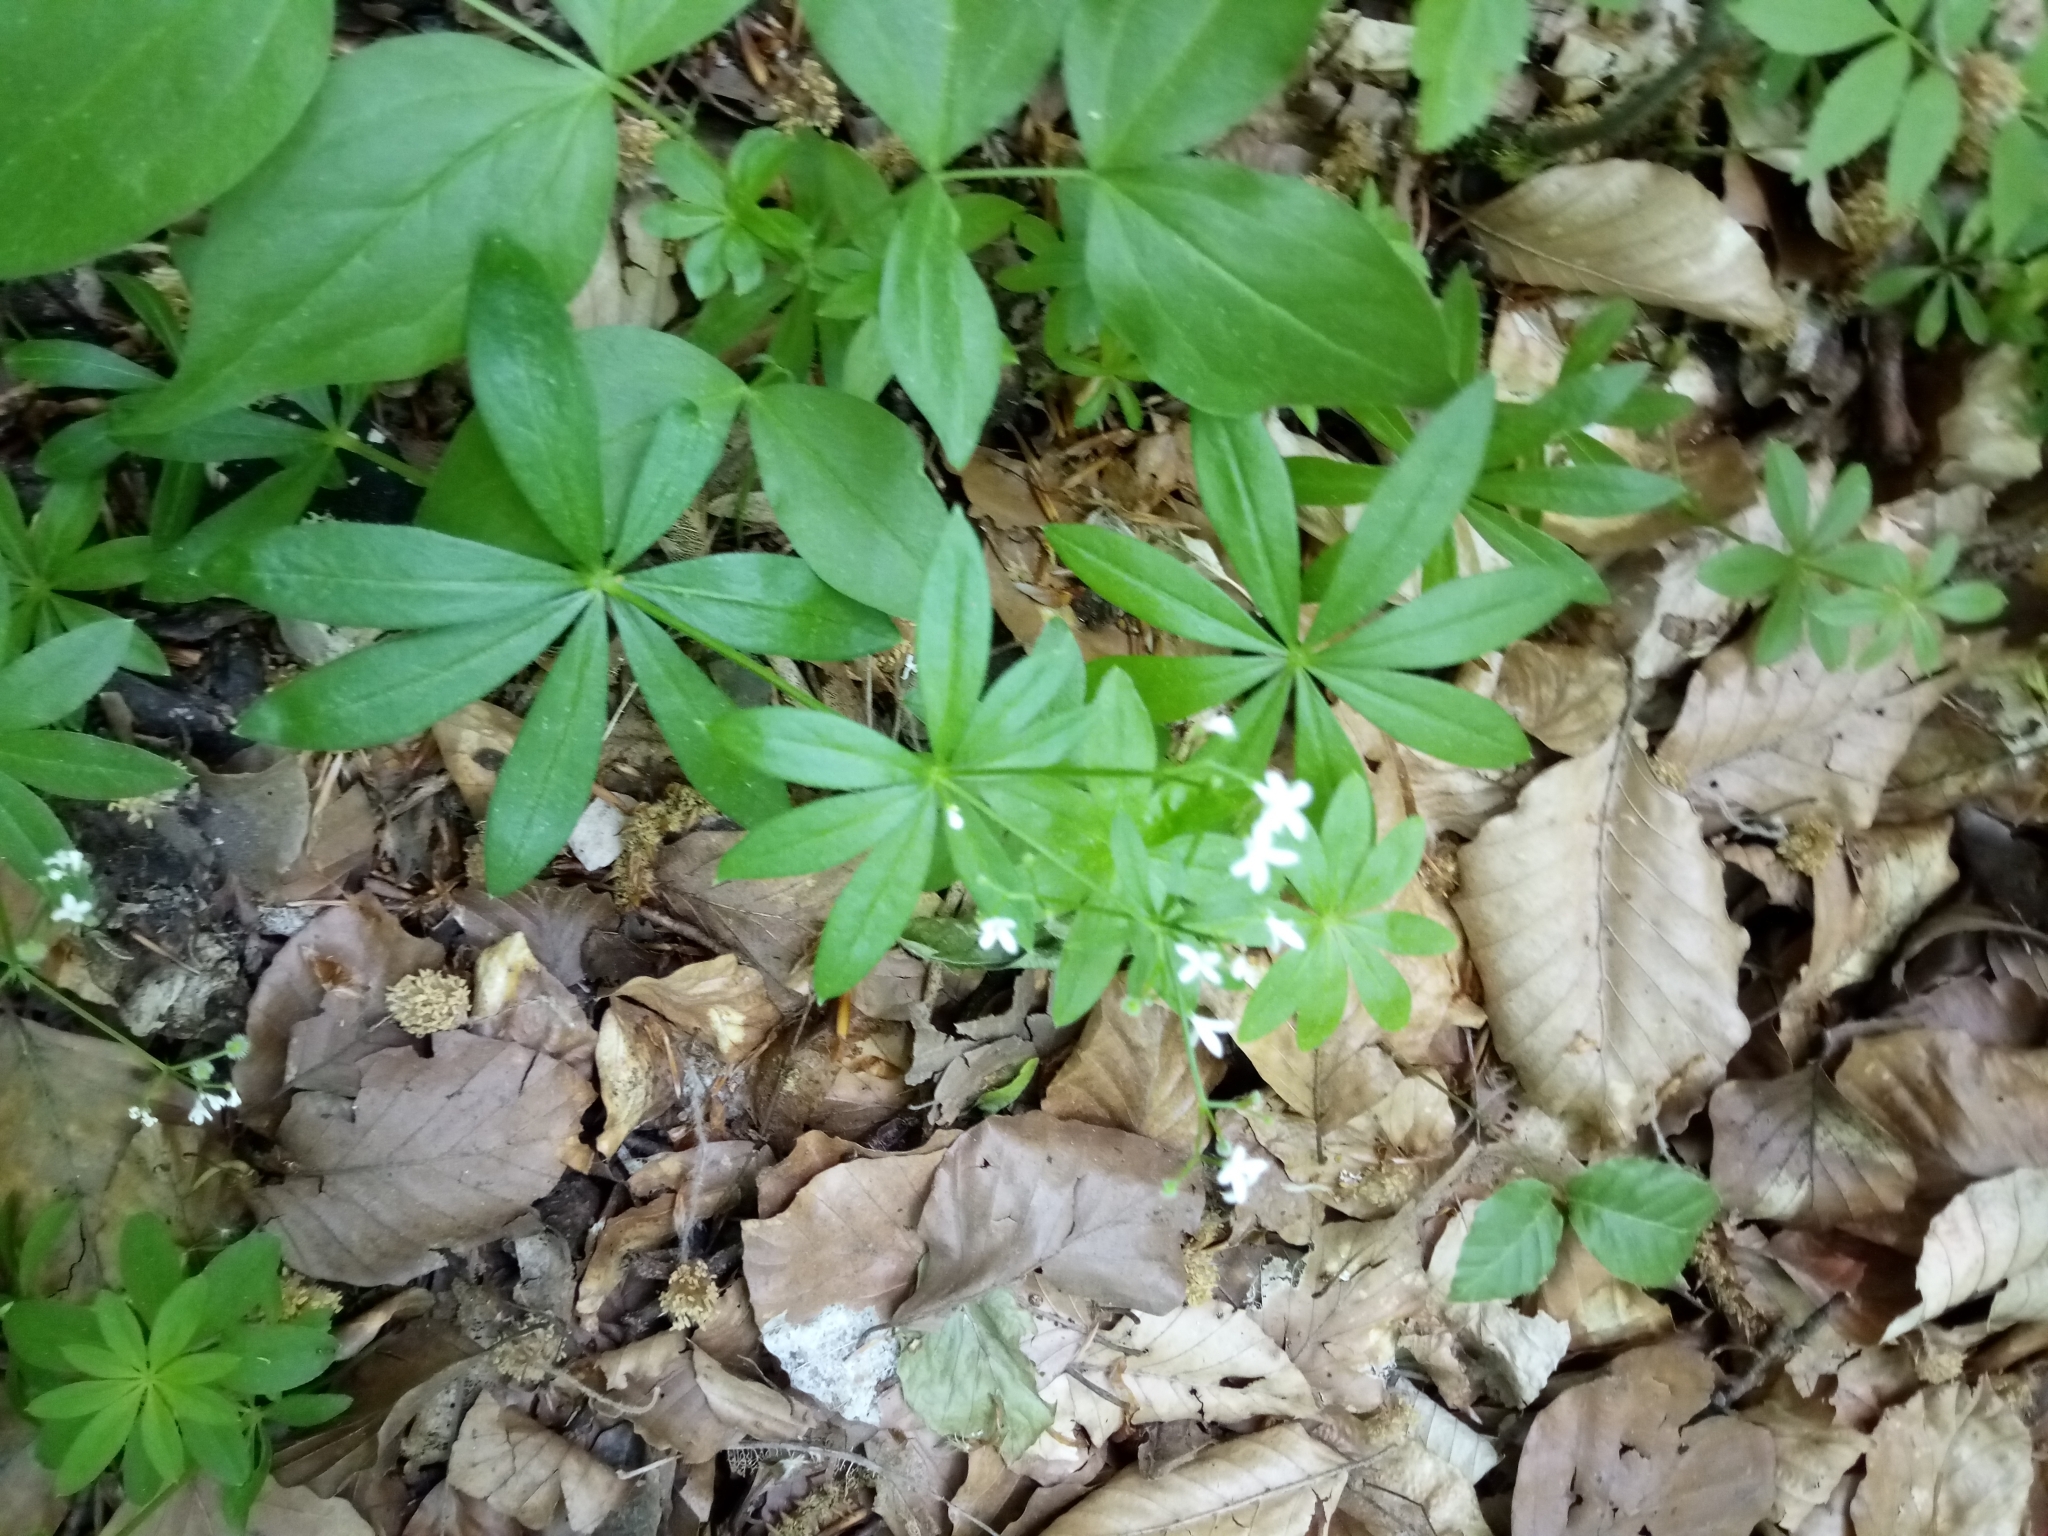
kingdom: Plantae
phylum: Tracheophyta
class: Magnoliopsida
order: Gentianales
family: Rubiaceae
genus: Galium
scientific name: Galium odoratum
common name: Sweet woodruff
